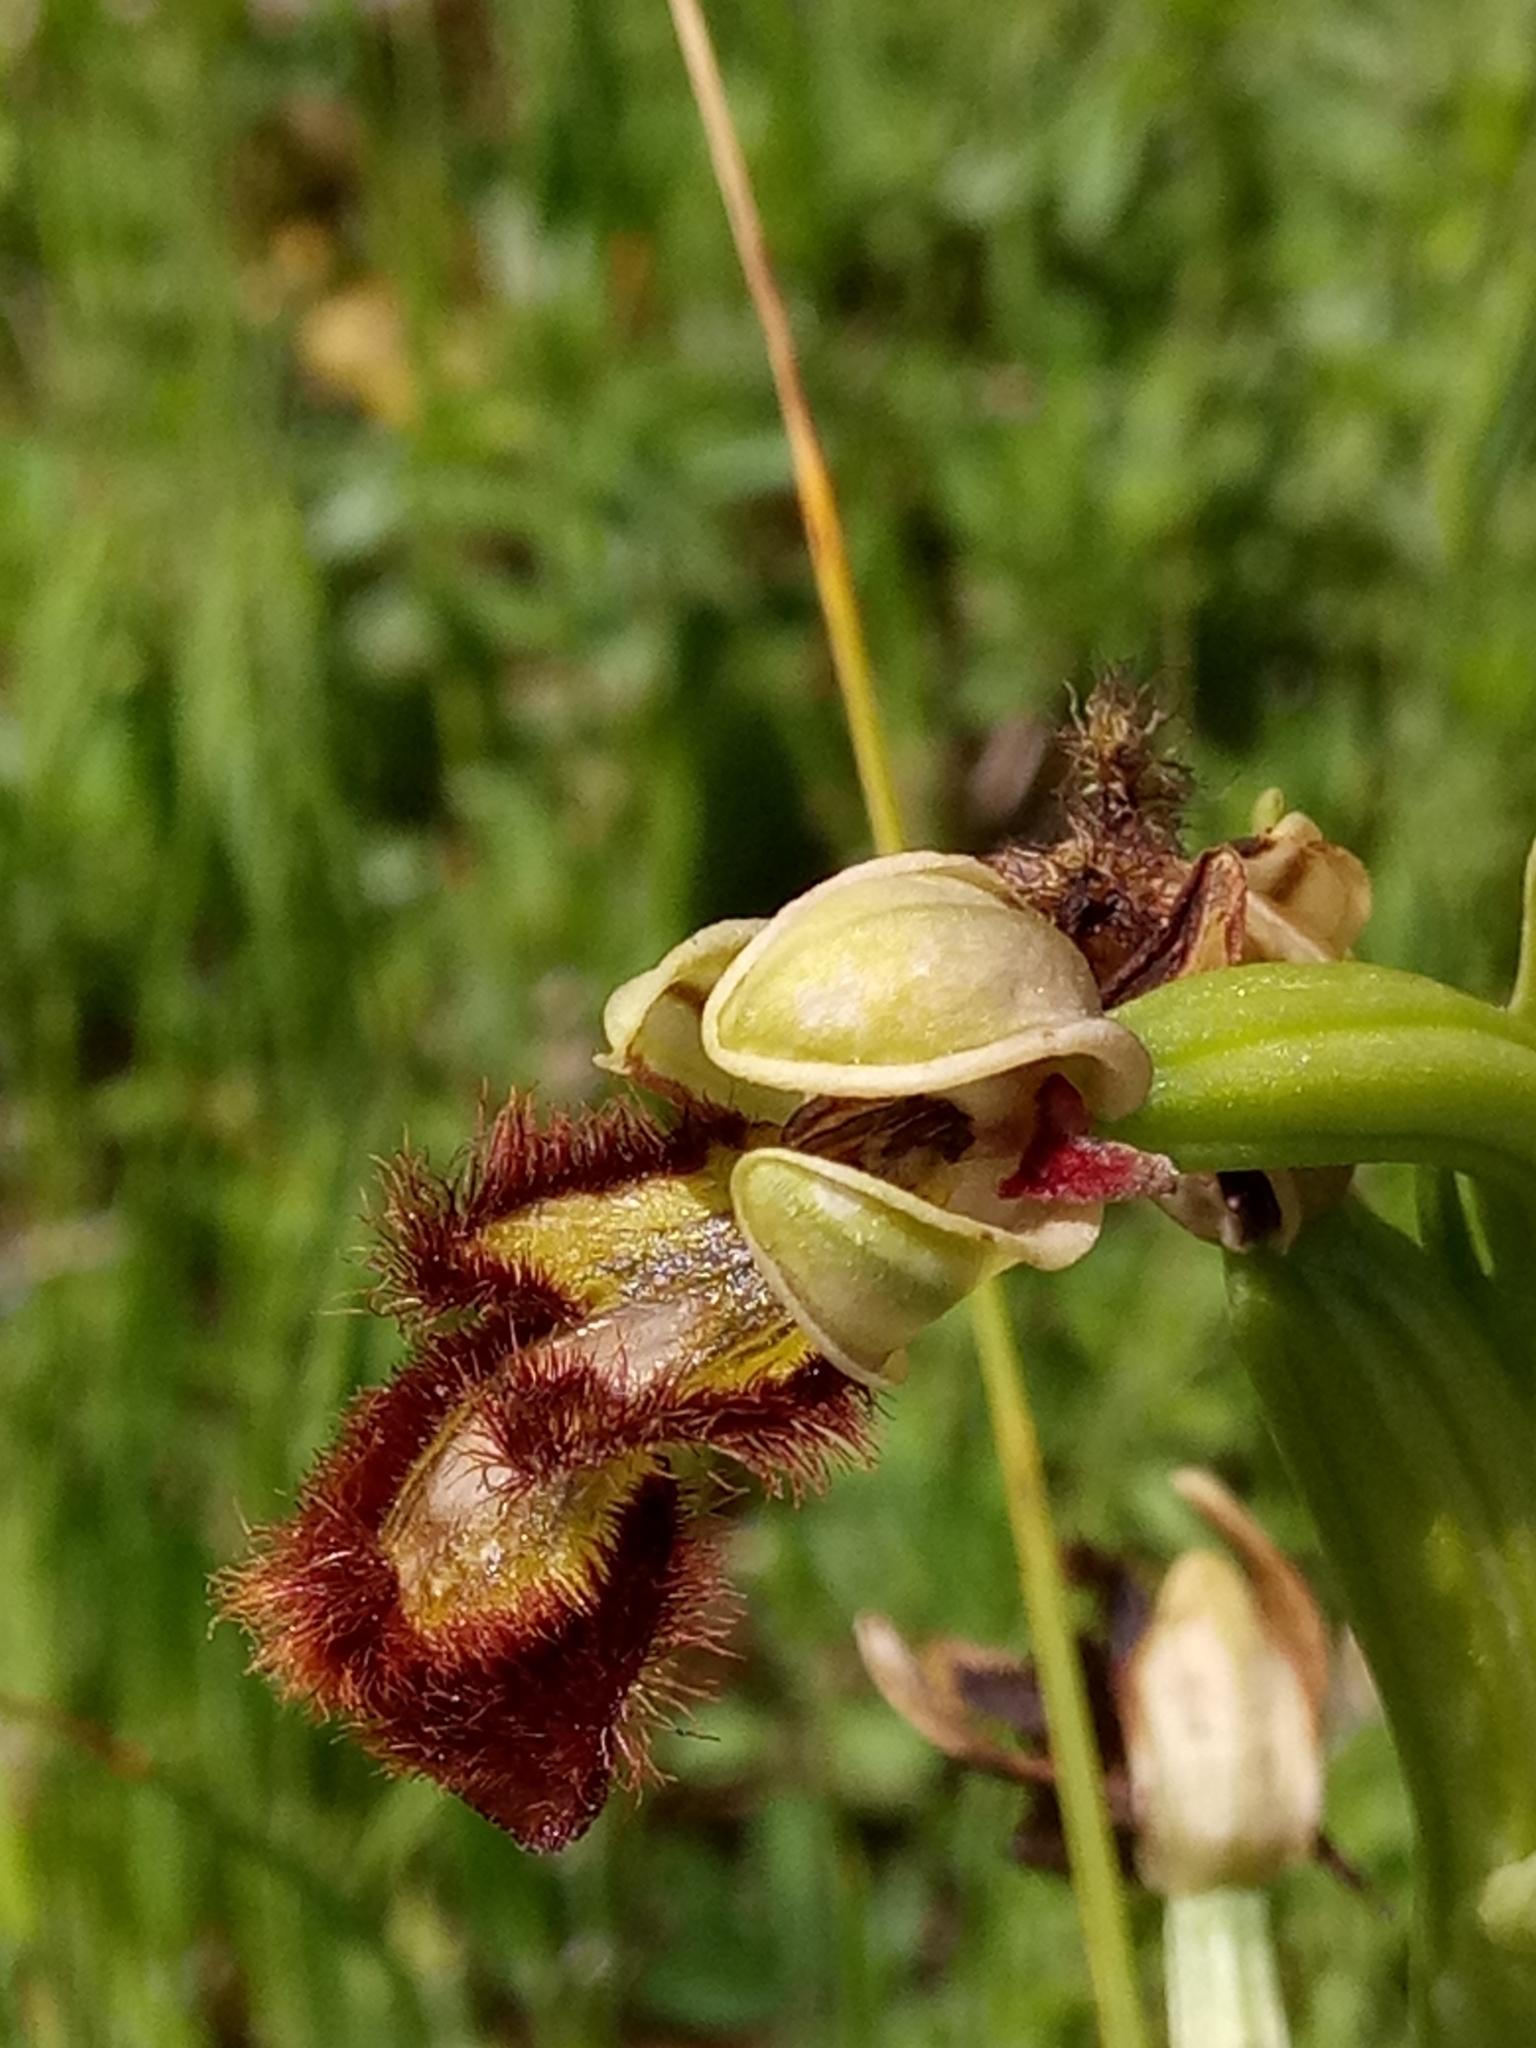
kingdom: Plantae
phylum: Tracheophyta
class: Liliopsida
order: Asparagales
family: Orchidaceae
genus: Ophrys
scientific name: Ophrys speculum
